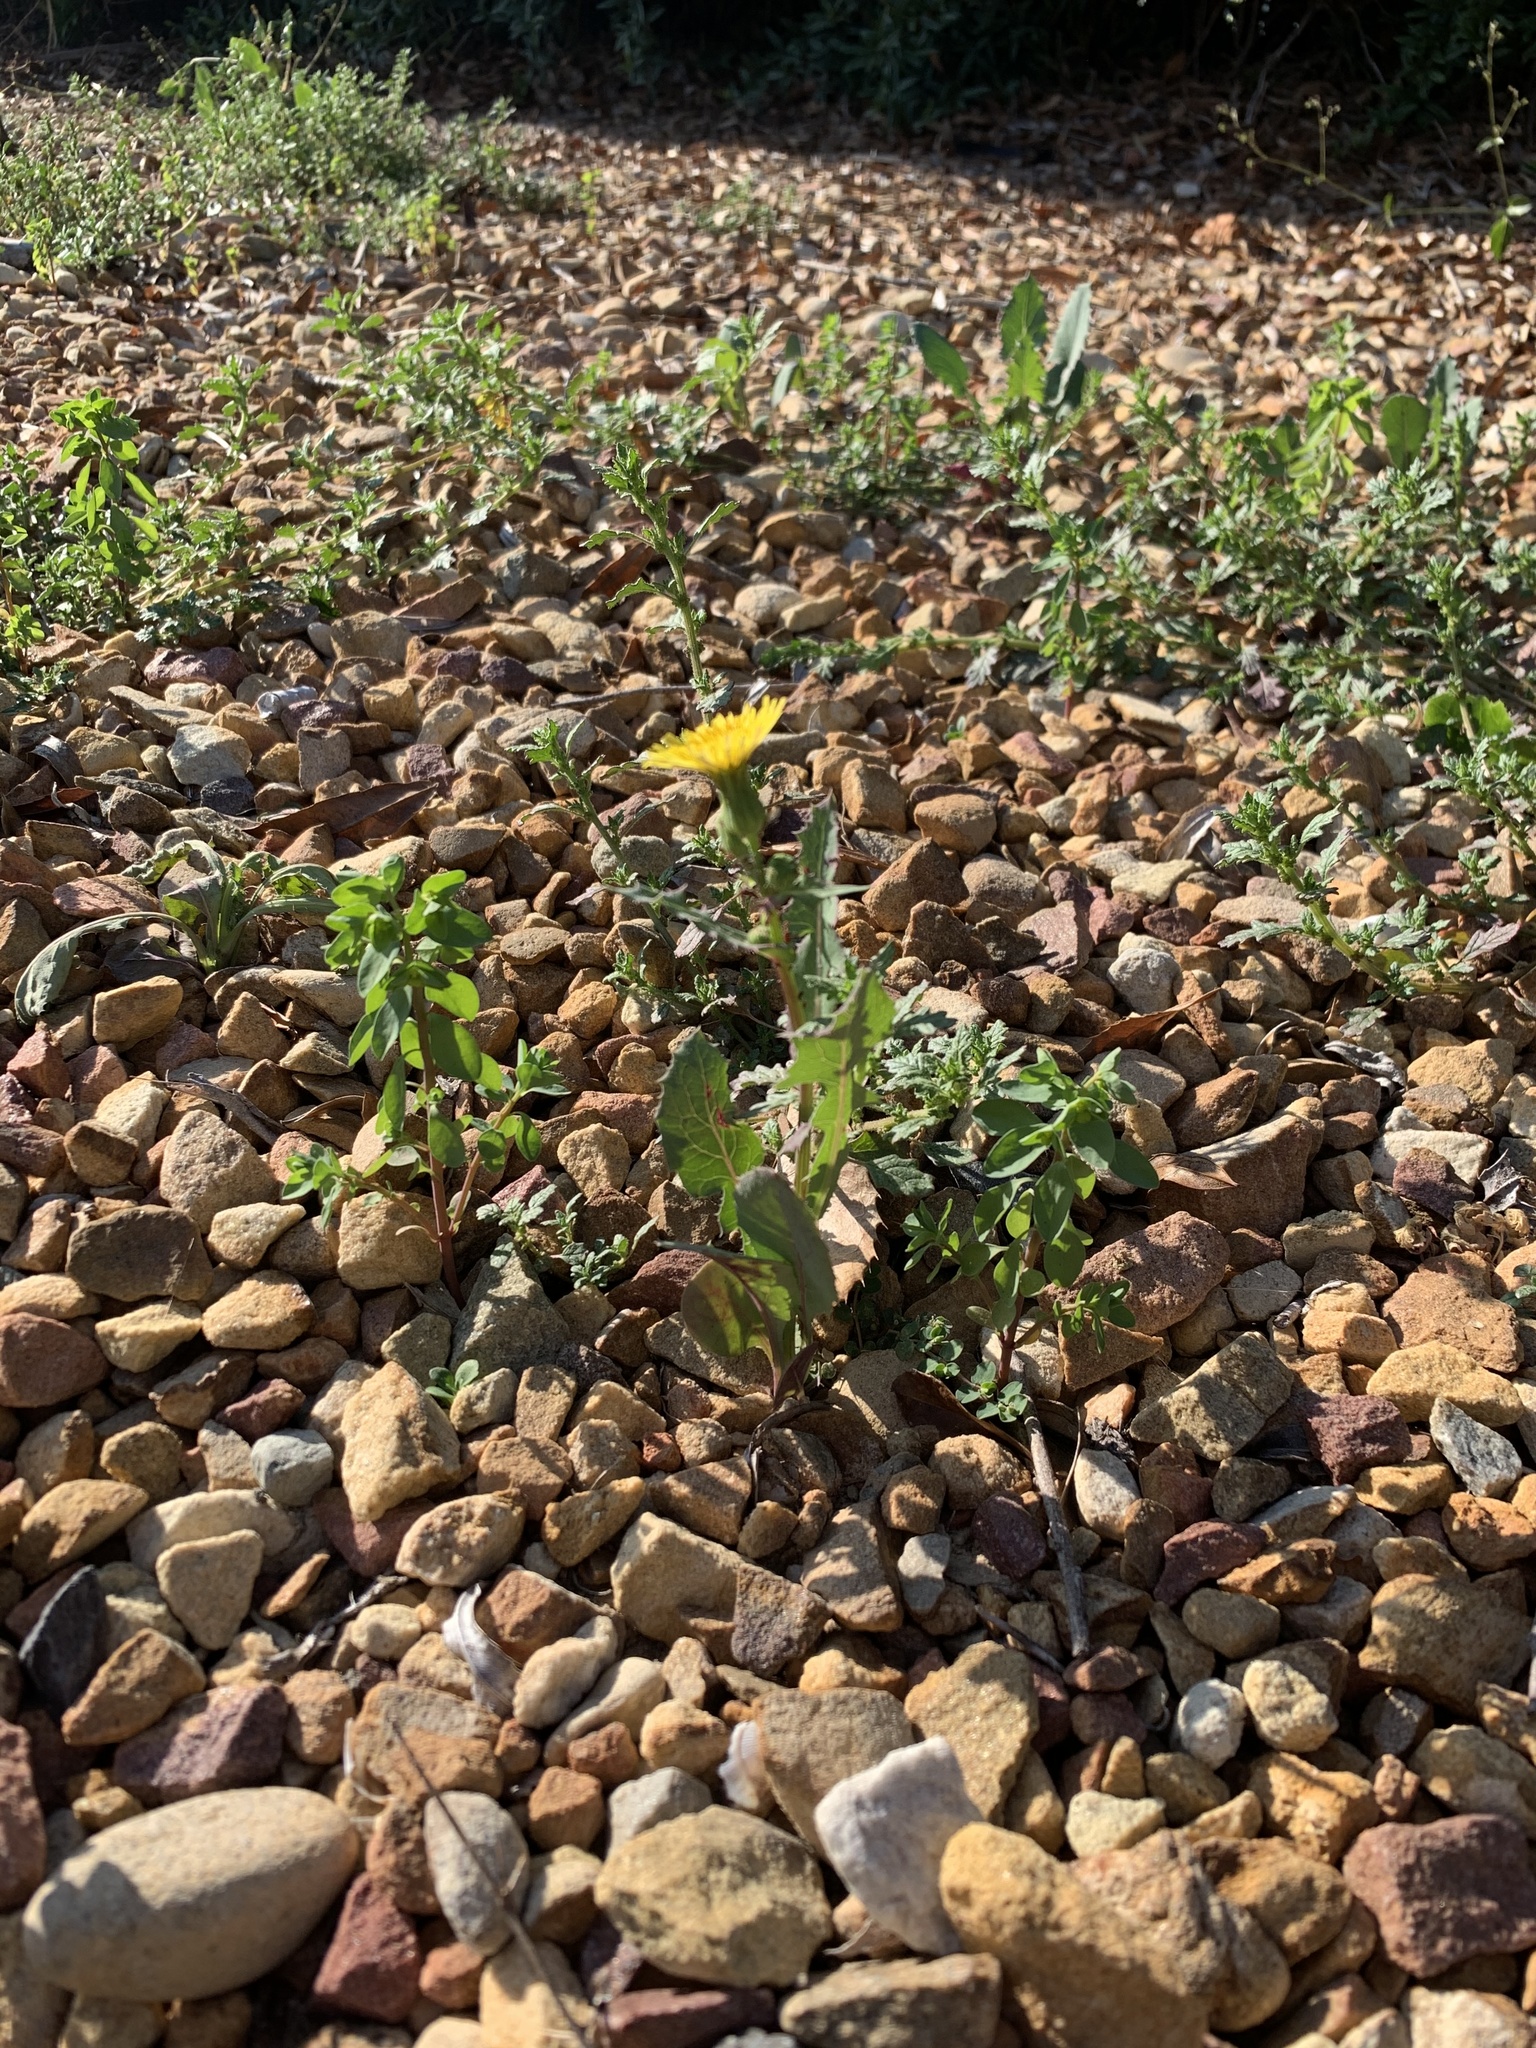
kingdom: Plantae
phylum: Tracheophyta
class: Magnoliopsida
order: Asterales
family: Asteraceae
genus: Sonchus
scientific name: Sonchus oleraceus
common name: Common sowthistle
